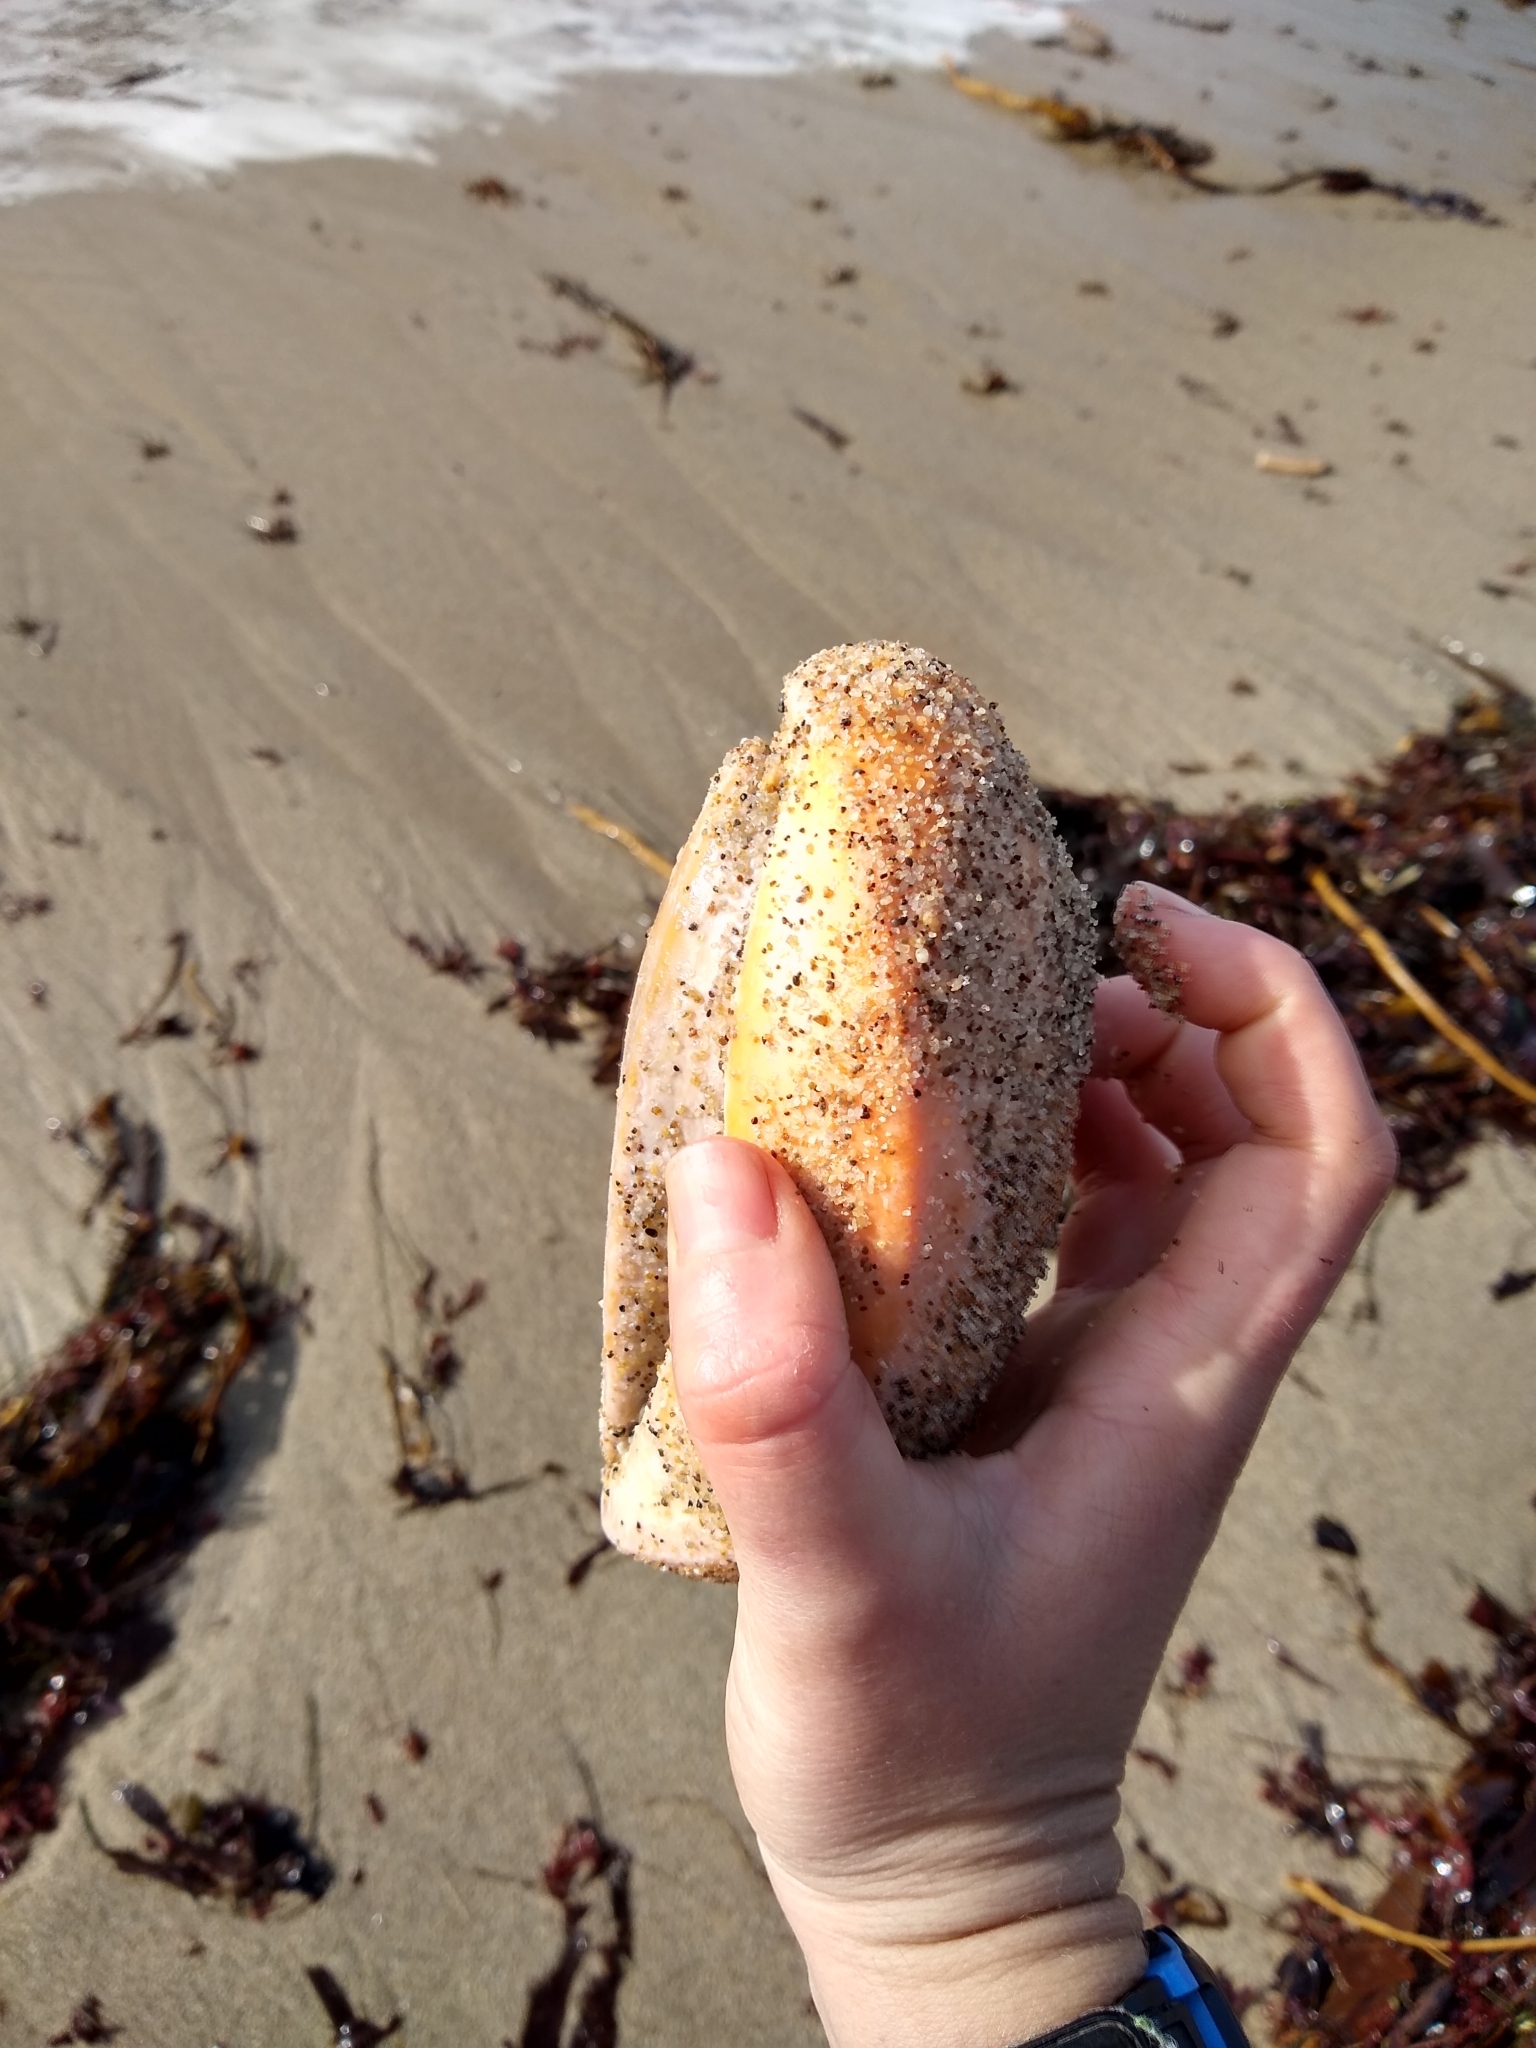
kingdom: Animalia
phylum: Mollusca
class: Polyplacophora
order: Chitonida
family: Acanthochitonidae
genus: Cryptochiton
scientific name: Cryptochiton stelleri
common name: Giant pacific chiton
